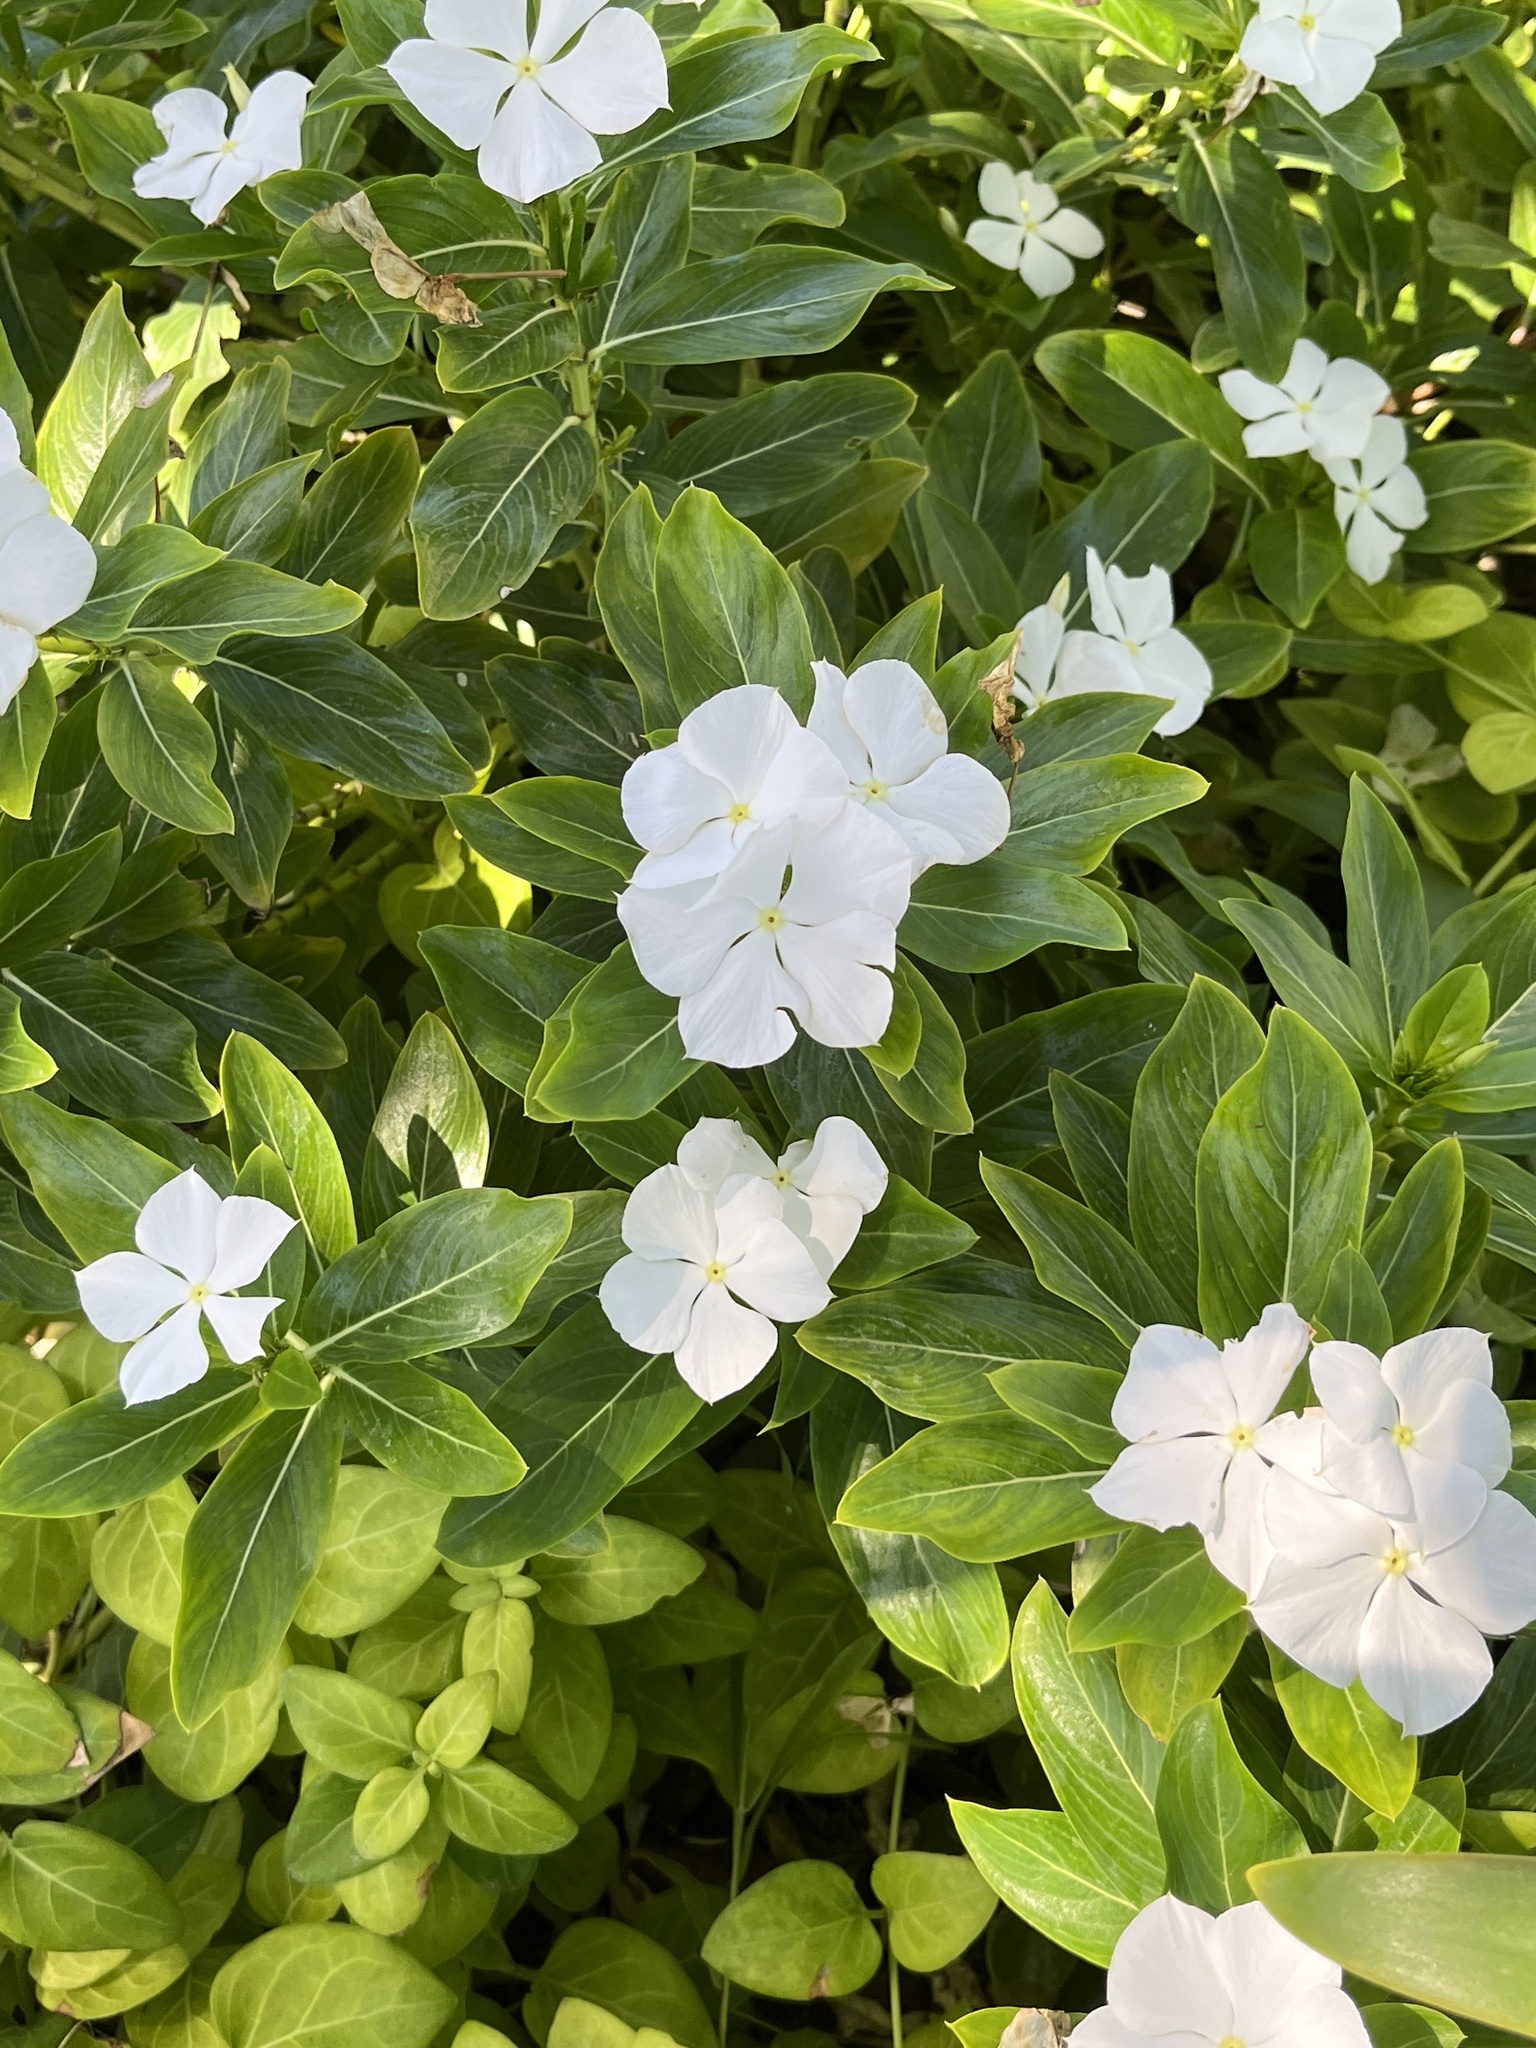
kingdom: Plantae
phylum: Tracheophyta
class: Magnoliopsida
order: Gentianales
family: Apocynaceae
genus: Catharanthus
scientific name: Catharanthus roseus
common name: Madagascar periwinkle
